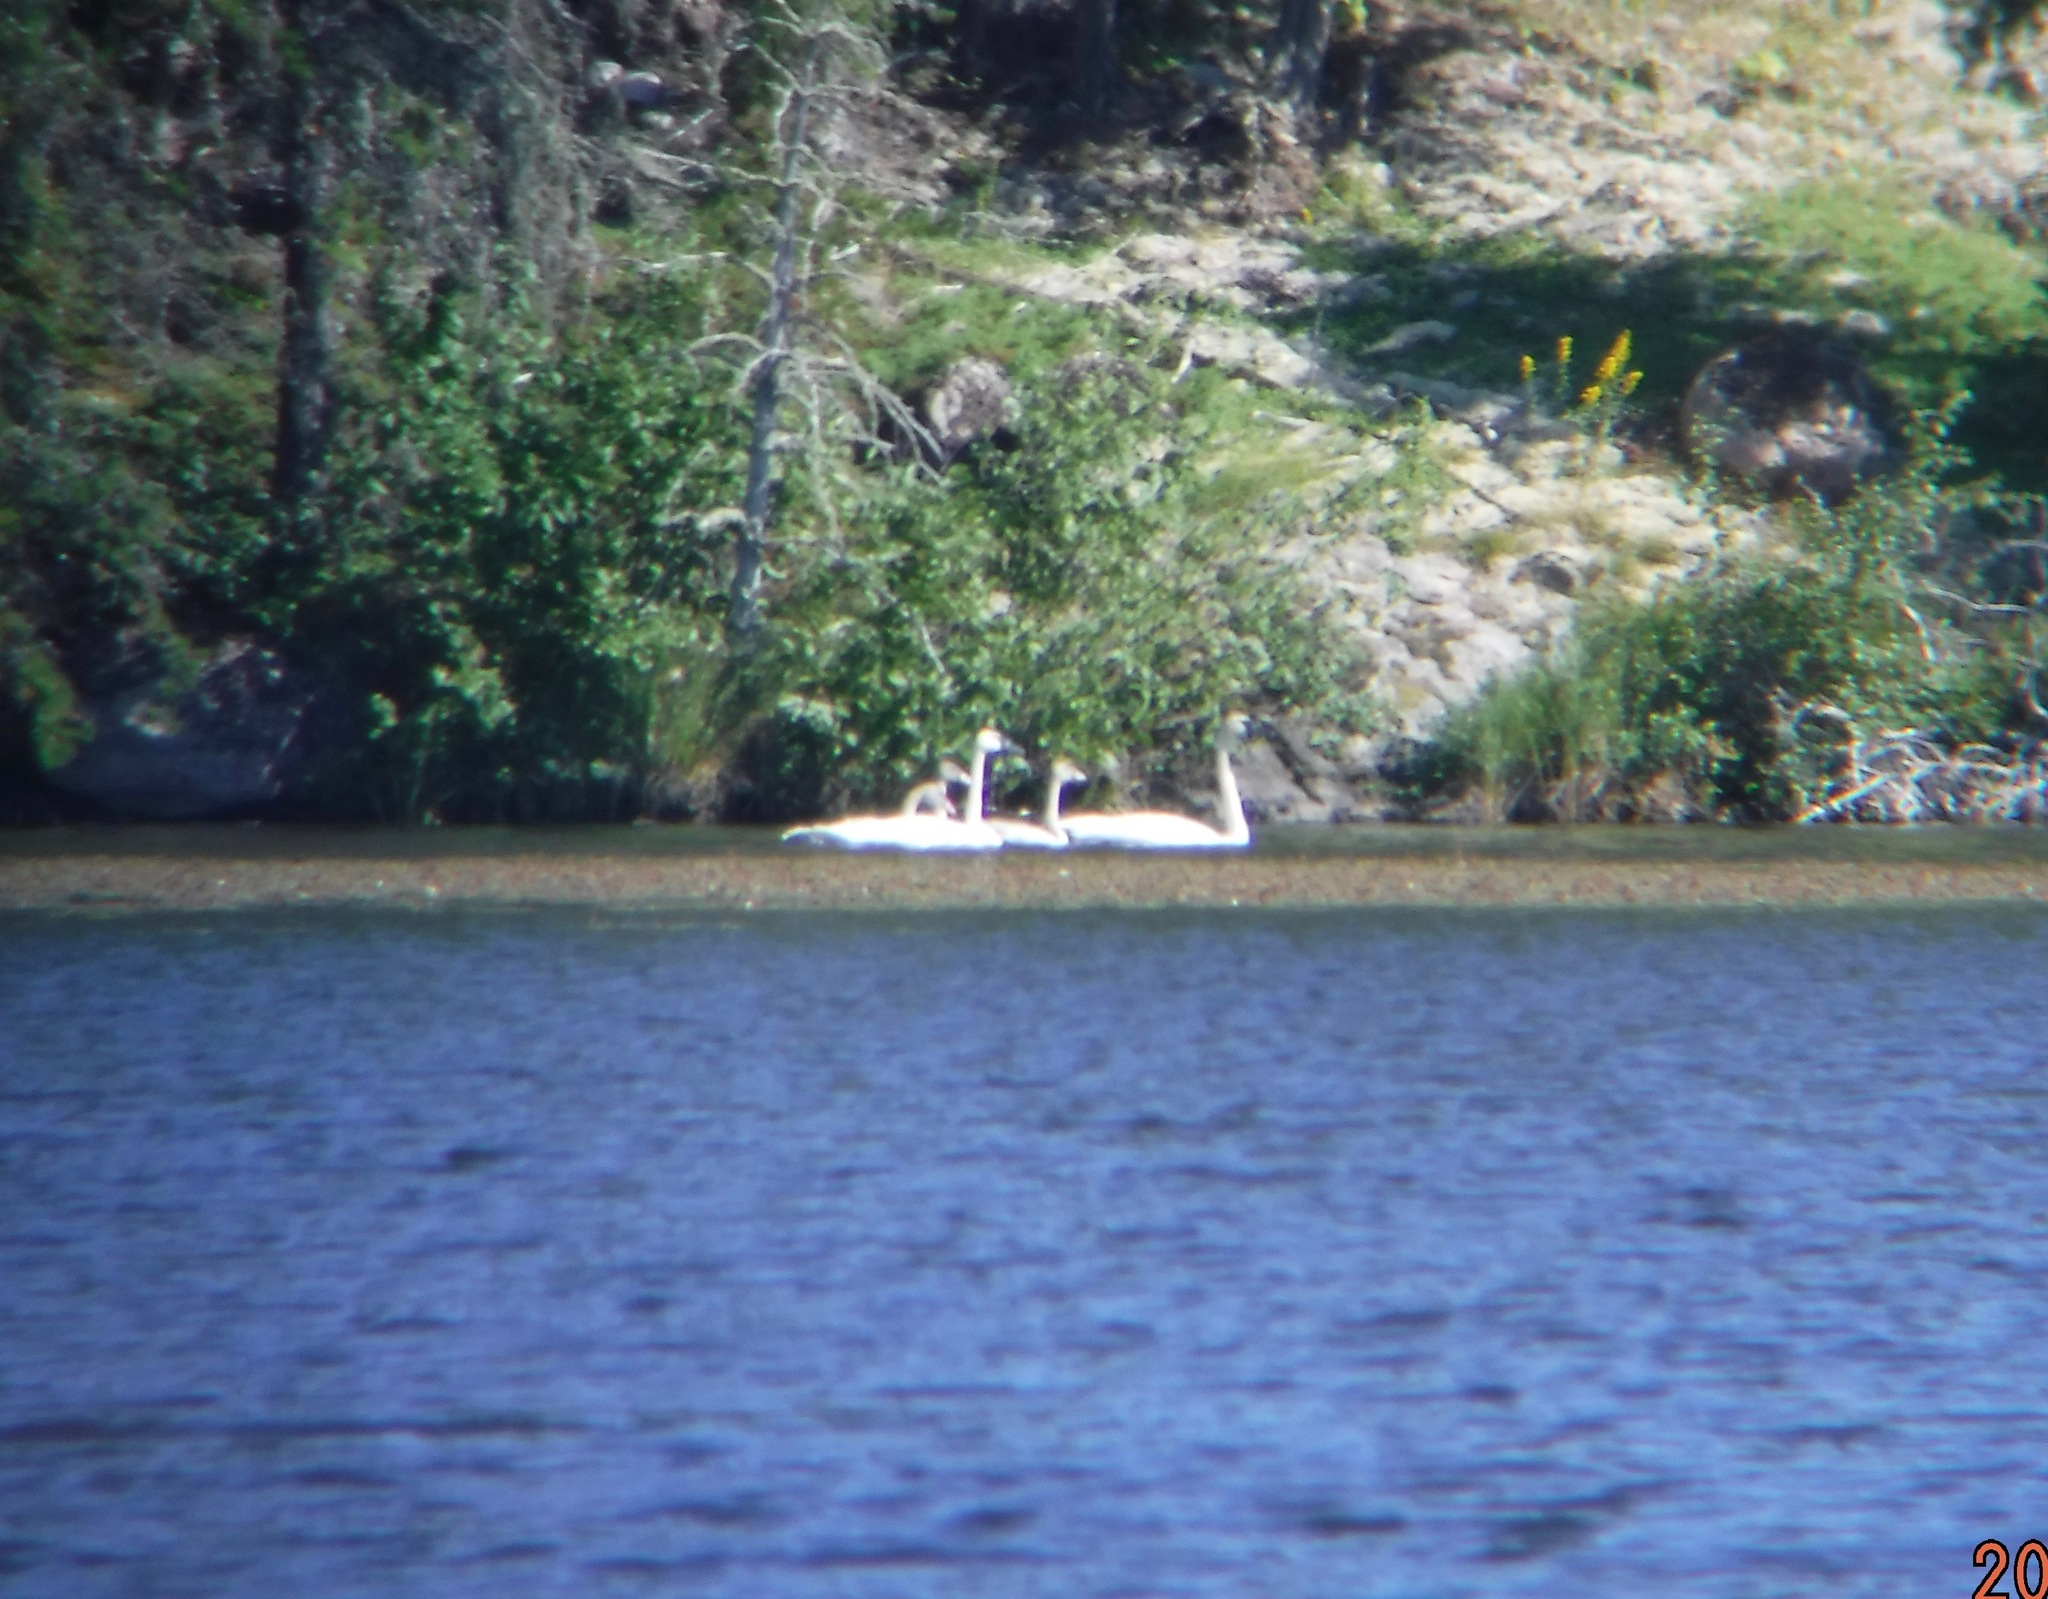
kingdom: Animalia
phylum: Chordata
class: Aves
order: Anseriformes
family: Anatidae
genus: Cygnus
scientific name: Cygnus buccinator
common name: Trumpeter swan
